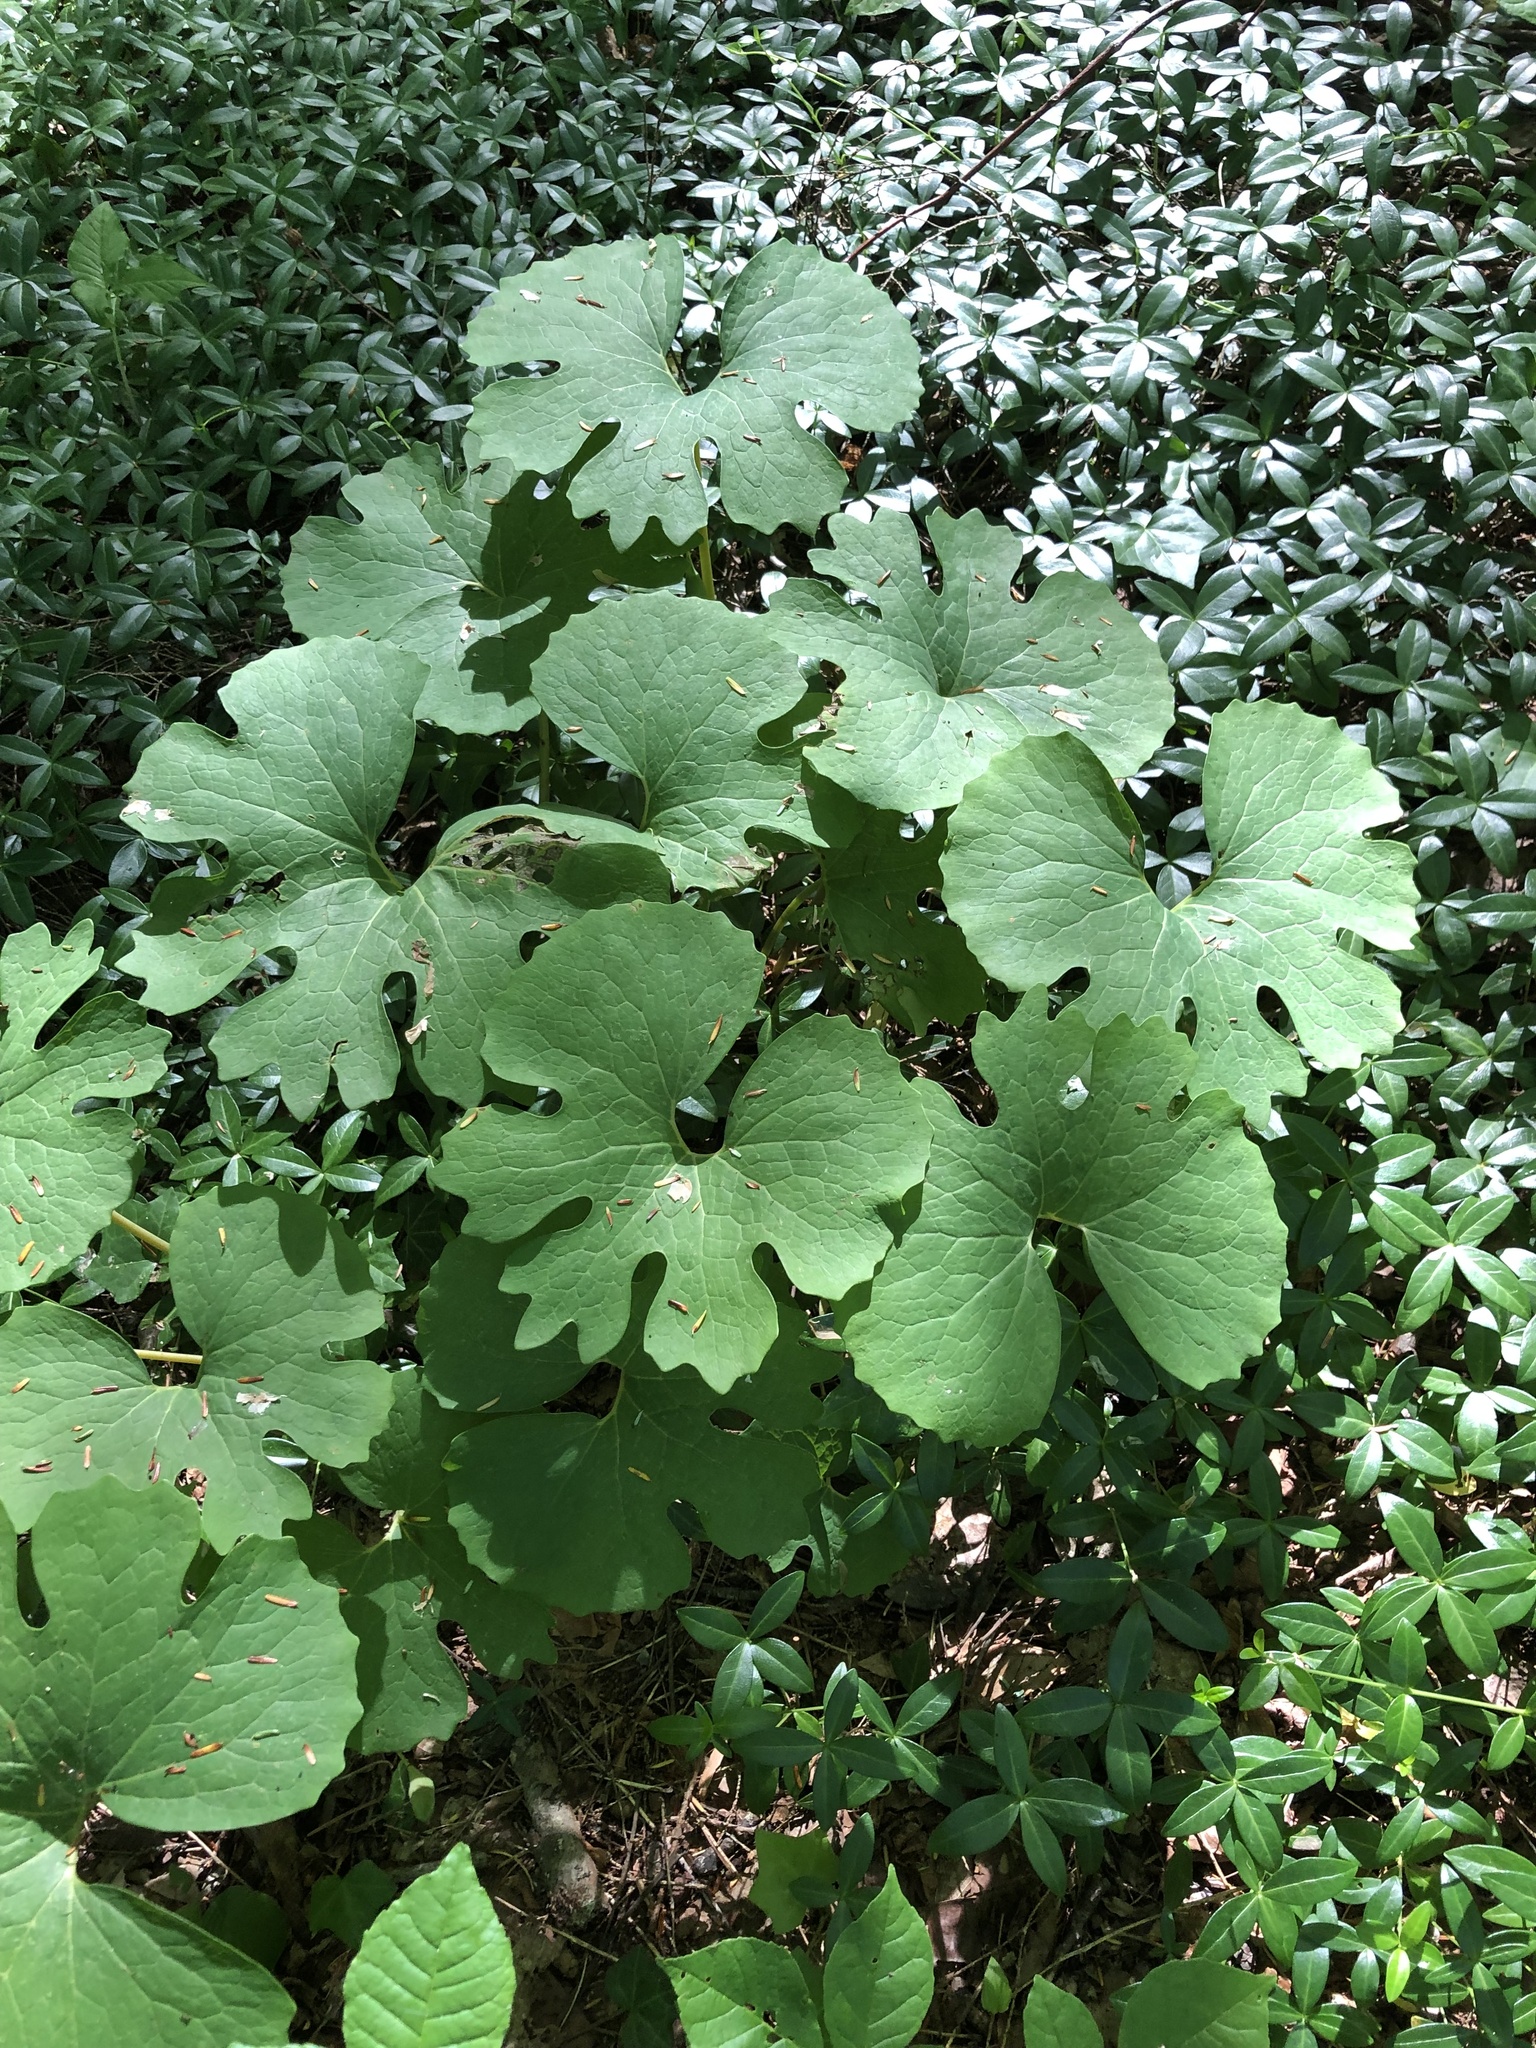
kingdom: Plantae
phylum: Tracheophyta
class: Magnoliopsida
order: Ranunculales
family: Papaveraceae
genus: Sanguinaria
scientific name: Sanguinaria canadensis
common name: Bloodroot
